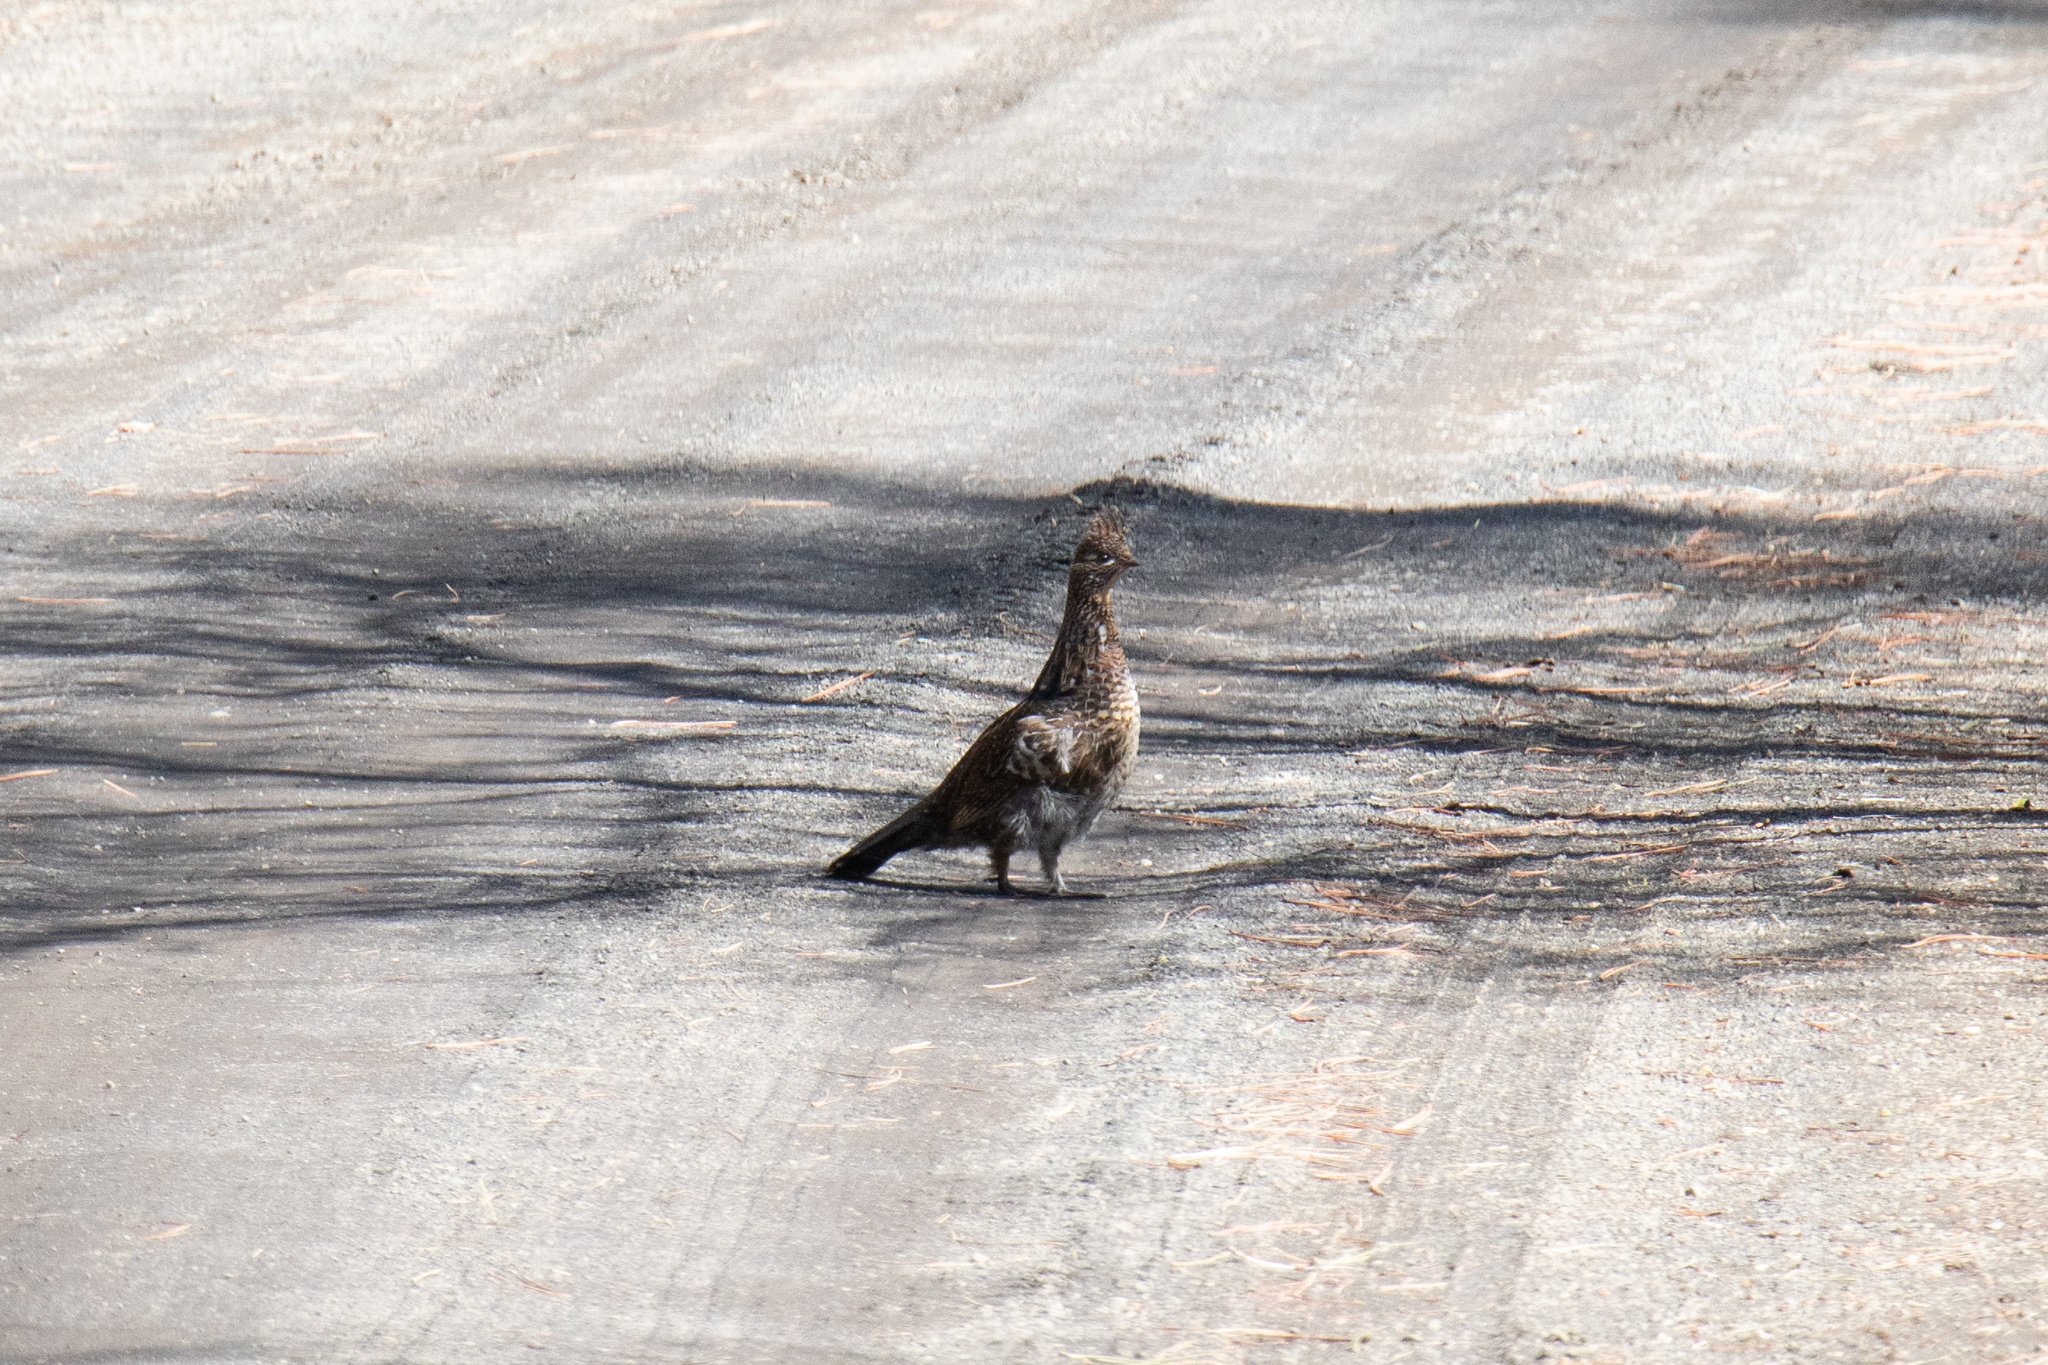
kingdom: Animalia
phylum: Chordata
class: Aves
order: Galliformes
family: Phasianidae
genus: Bonasa
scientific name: Bonasa umbellus
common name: Ruffed grouse
